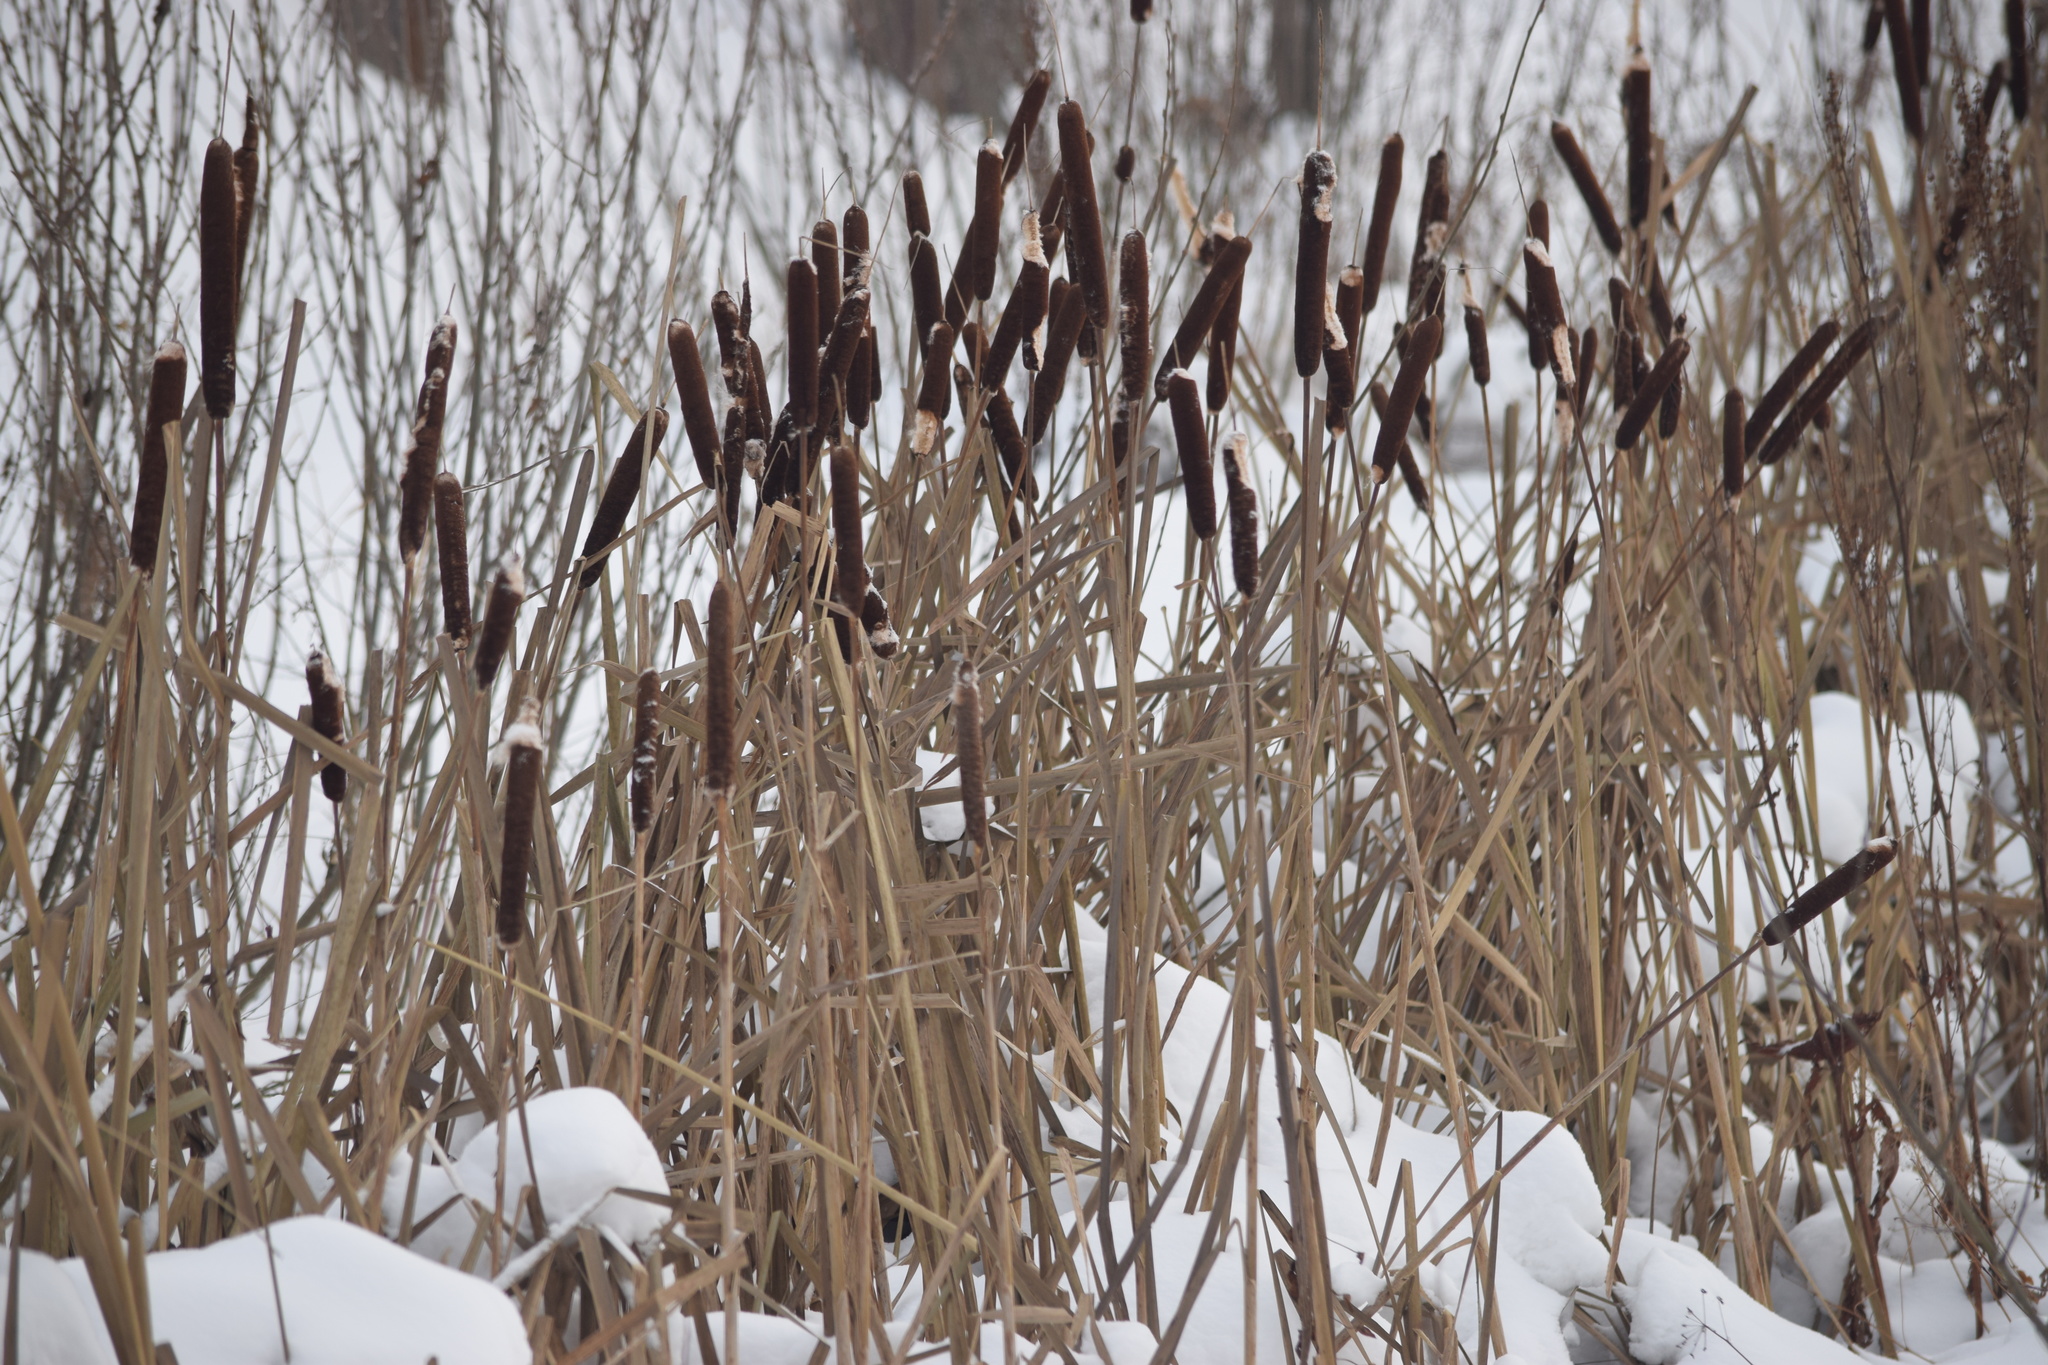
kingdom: Plantae
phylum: Tracheophyta
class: Liliopsida
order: Poales
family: Typhaceae
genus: Typha
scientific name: Typha latifolia
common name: Broadleaf cattail
